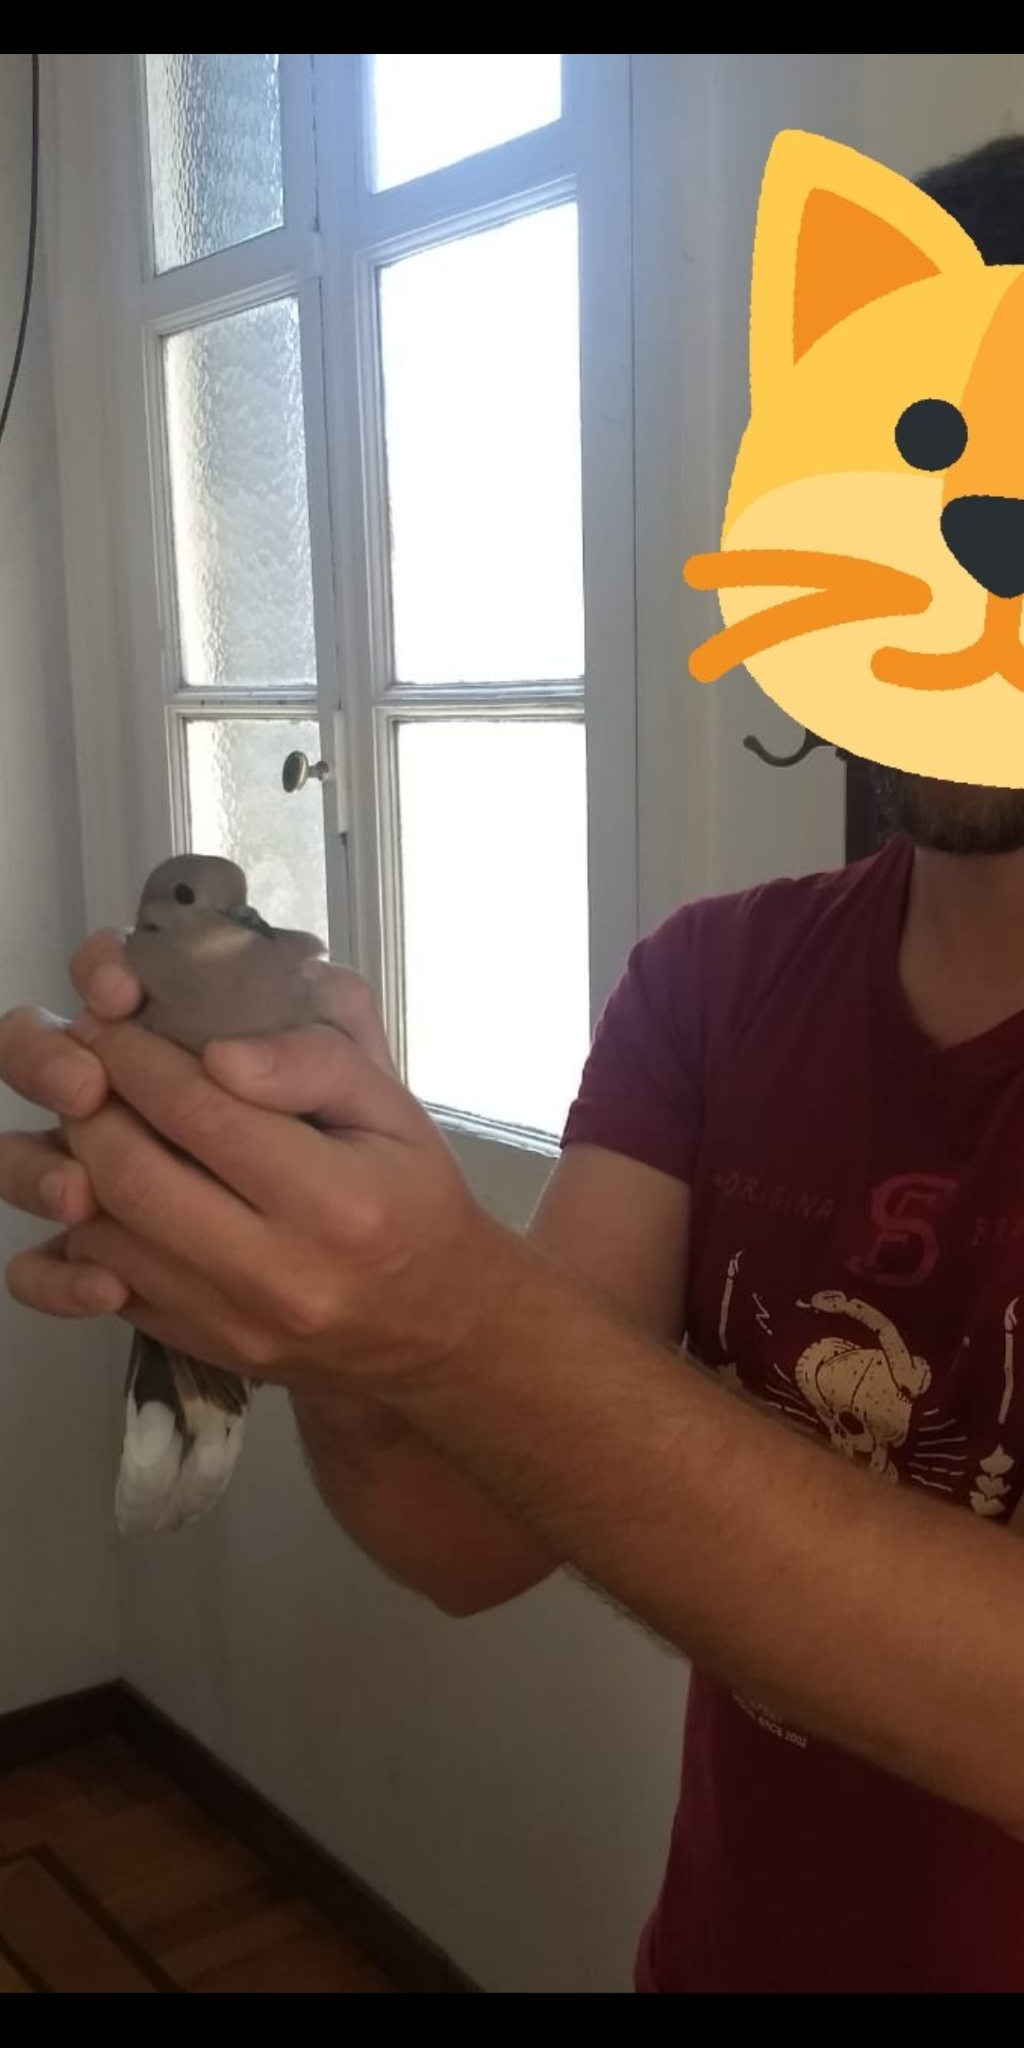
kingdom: Animalia
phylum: Chordata
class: Aves
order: Columbiformes
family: Columbidae
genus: Zenaida
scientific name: Zenaida auriculata
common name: Eared dove
